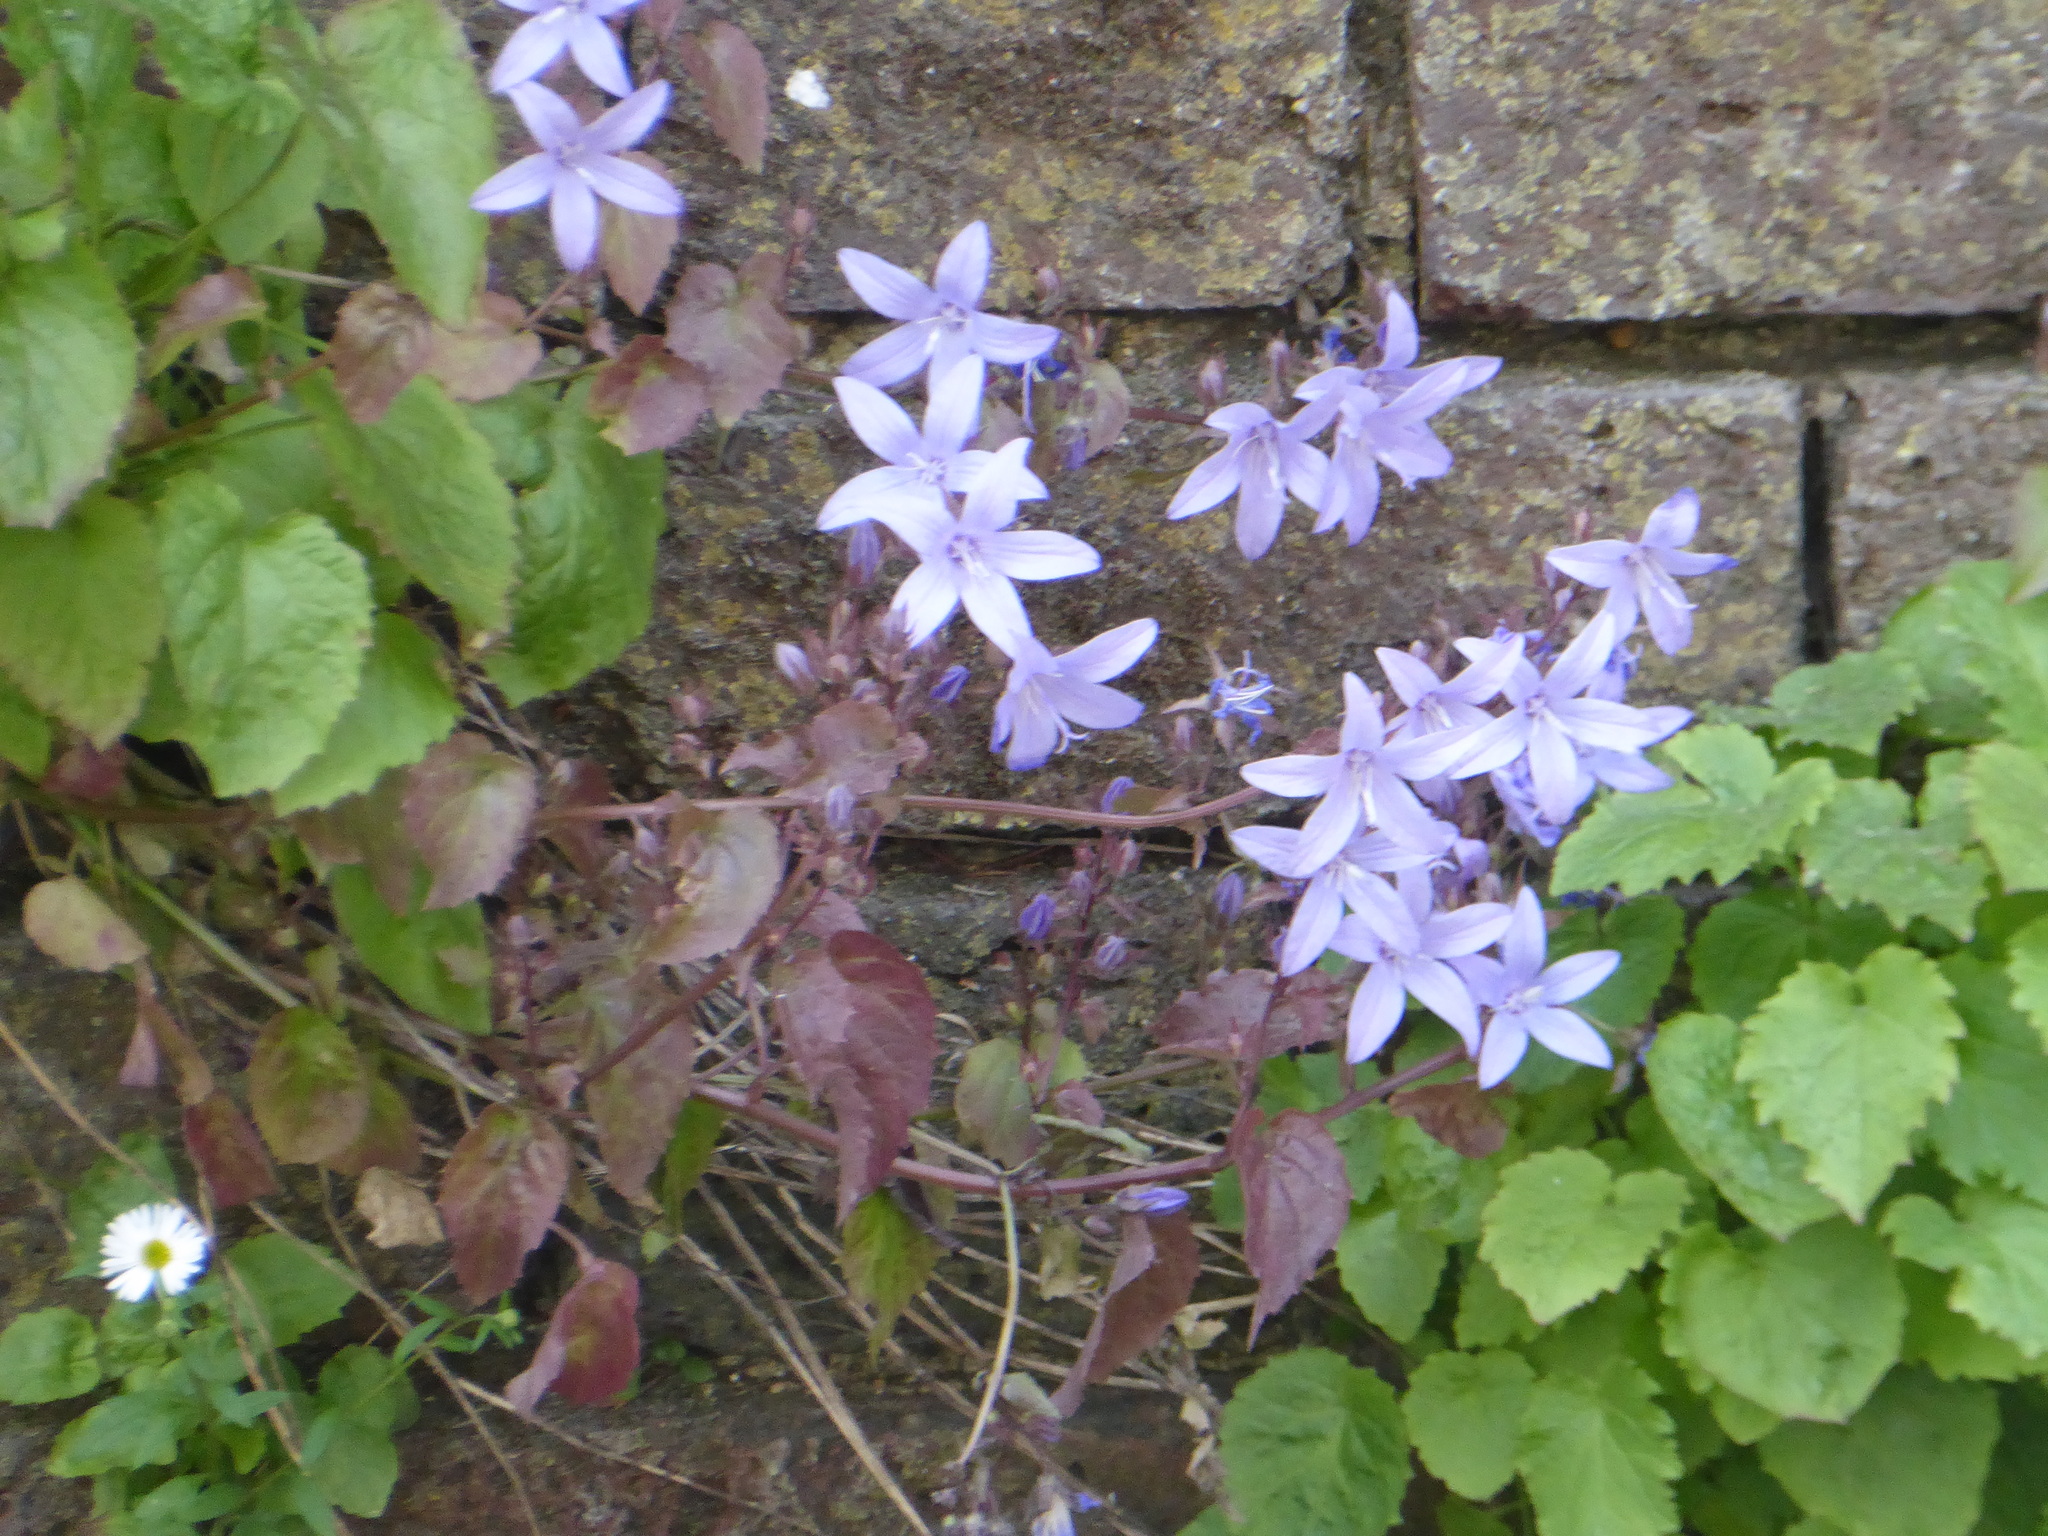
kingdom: Plantae
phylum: Tracheophyta
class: Magnoliopsida
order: Asterales
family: Campanulaceae
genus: Campanula
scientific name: Campanula poscharskyana
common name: Trailing bellflower
